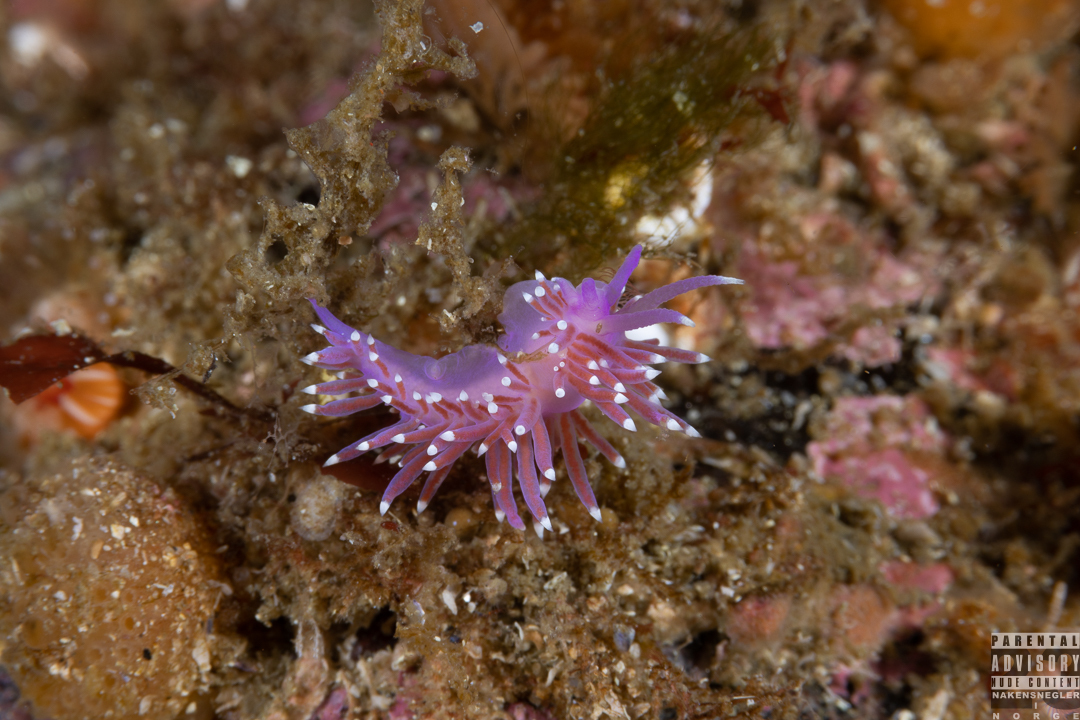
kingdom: Animalia
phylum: Mollusca
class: Gastropoda
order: Nudibranchia
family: Flabellinidae
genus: Edmundsella
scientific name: Edmundsella pedata
